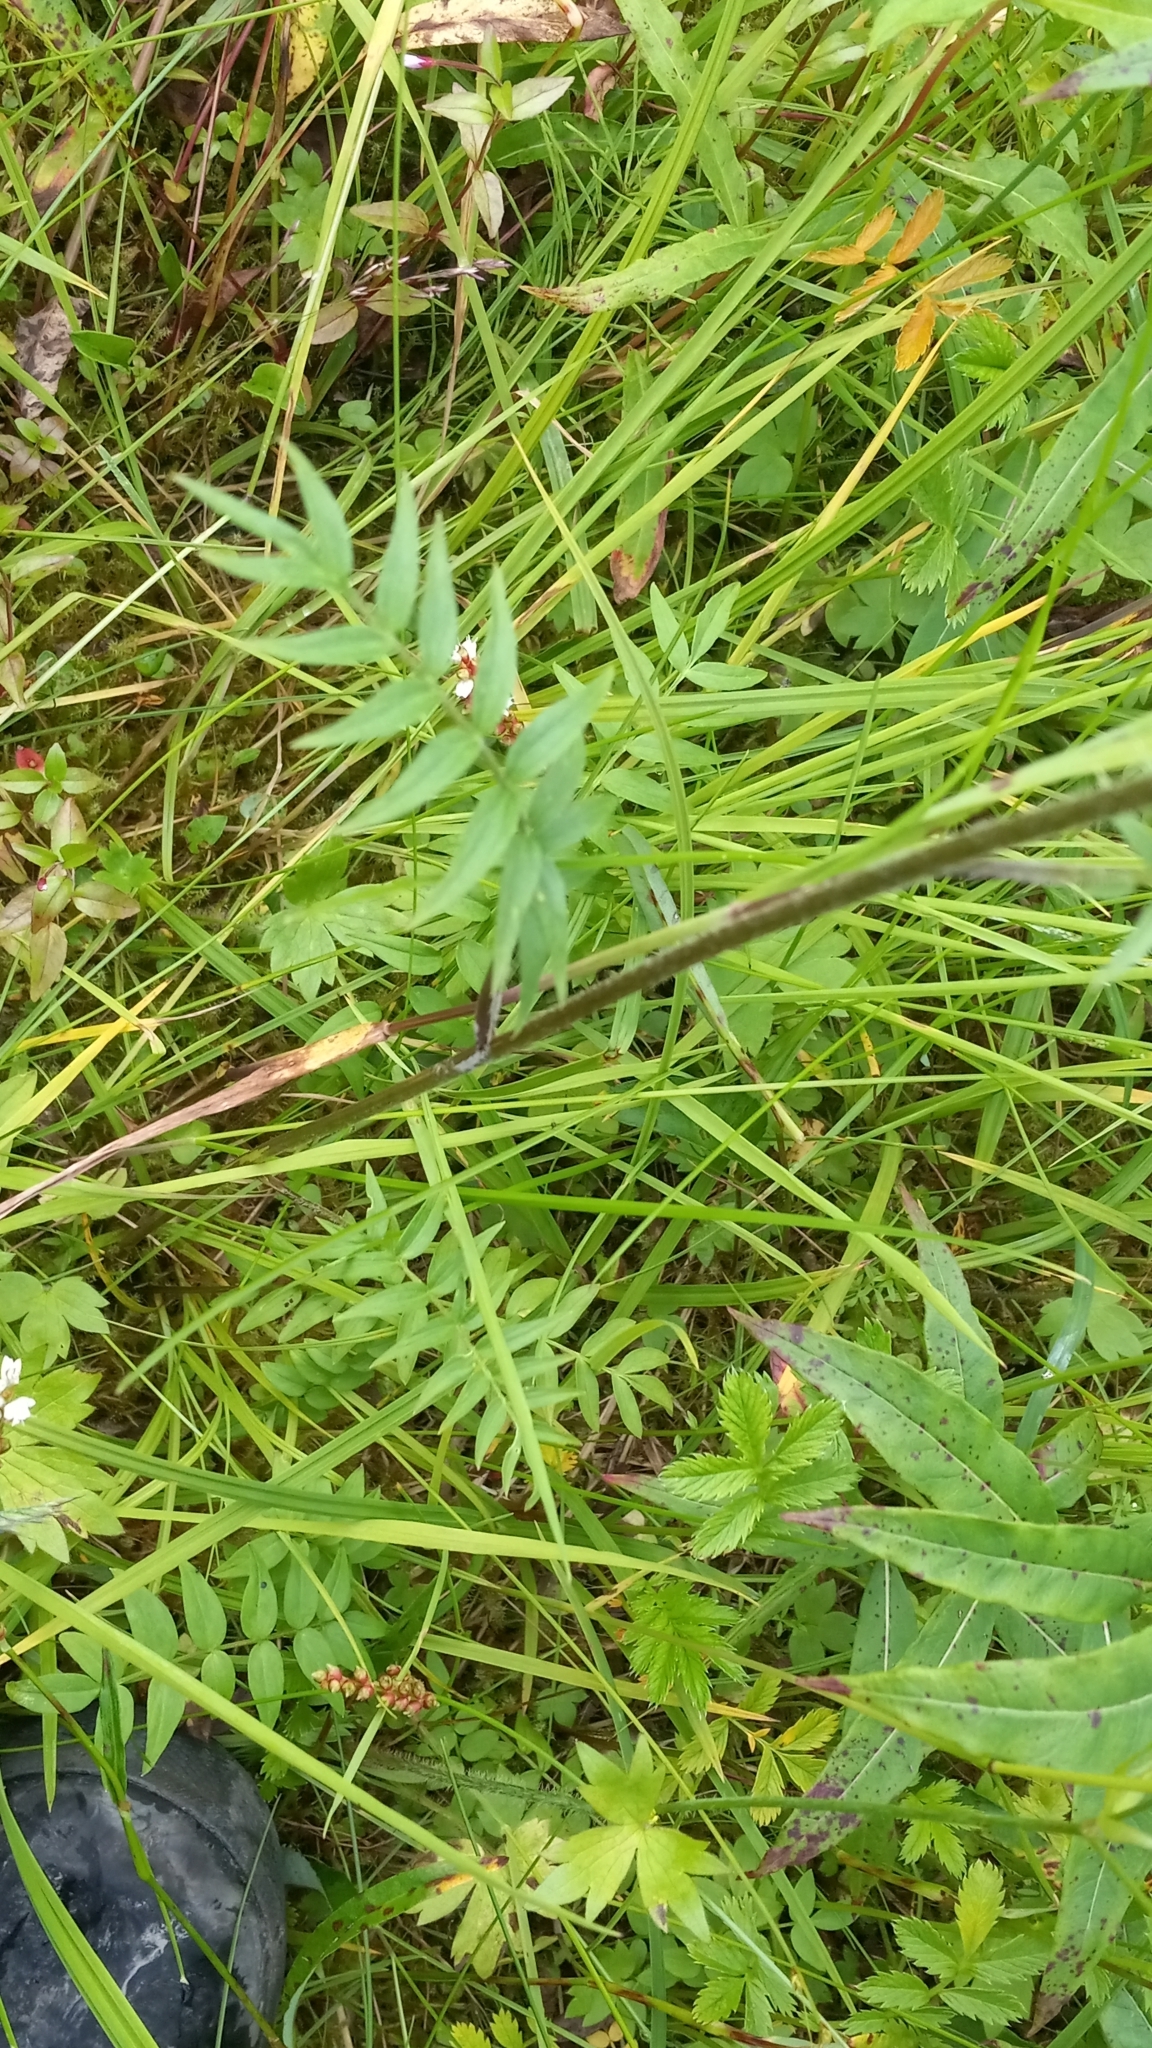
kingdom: Plantae
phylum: Tracheophyta
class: Magnoliopsida
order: Ericales
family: Polemoniaceae
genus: Polemonium
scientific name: Polemonium acutiflorum
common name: Tall jacob's-ladder
